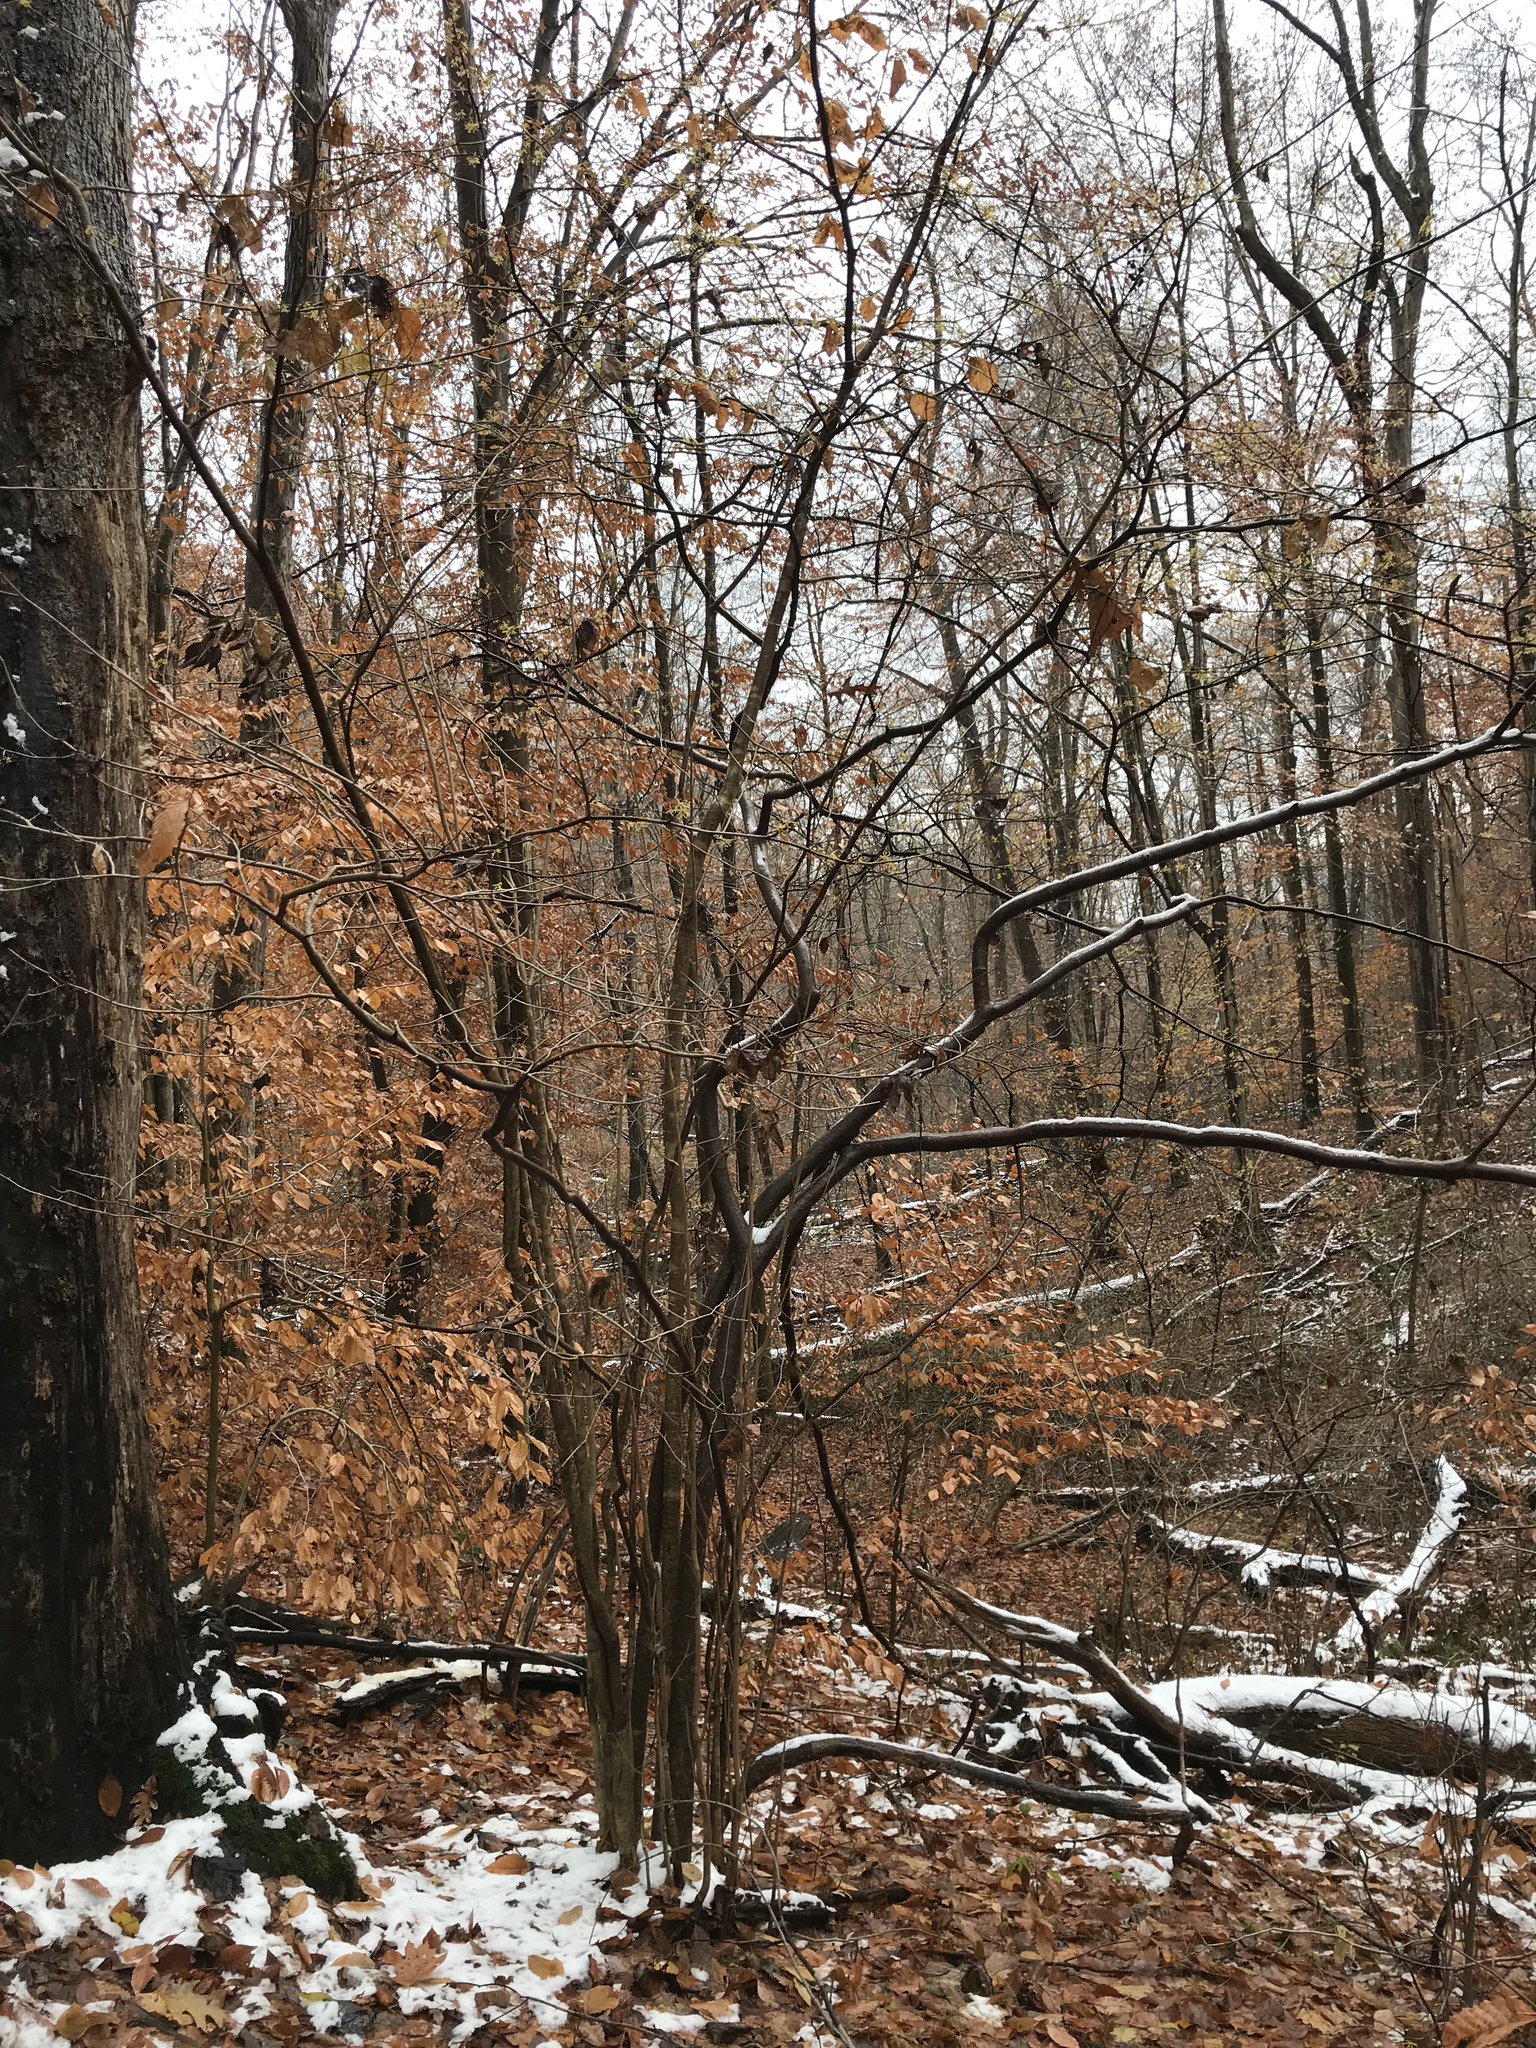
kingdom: Plantae
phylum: Tracheophyta
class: Magnoliopsida
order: Saxifragales
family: Hamamelidaceae
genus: Hamamelis
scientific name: Hamamelis virginiana
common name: Witch-hazel
